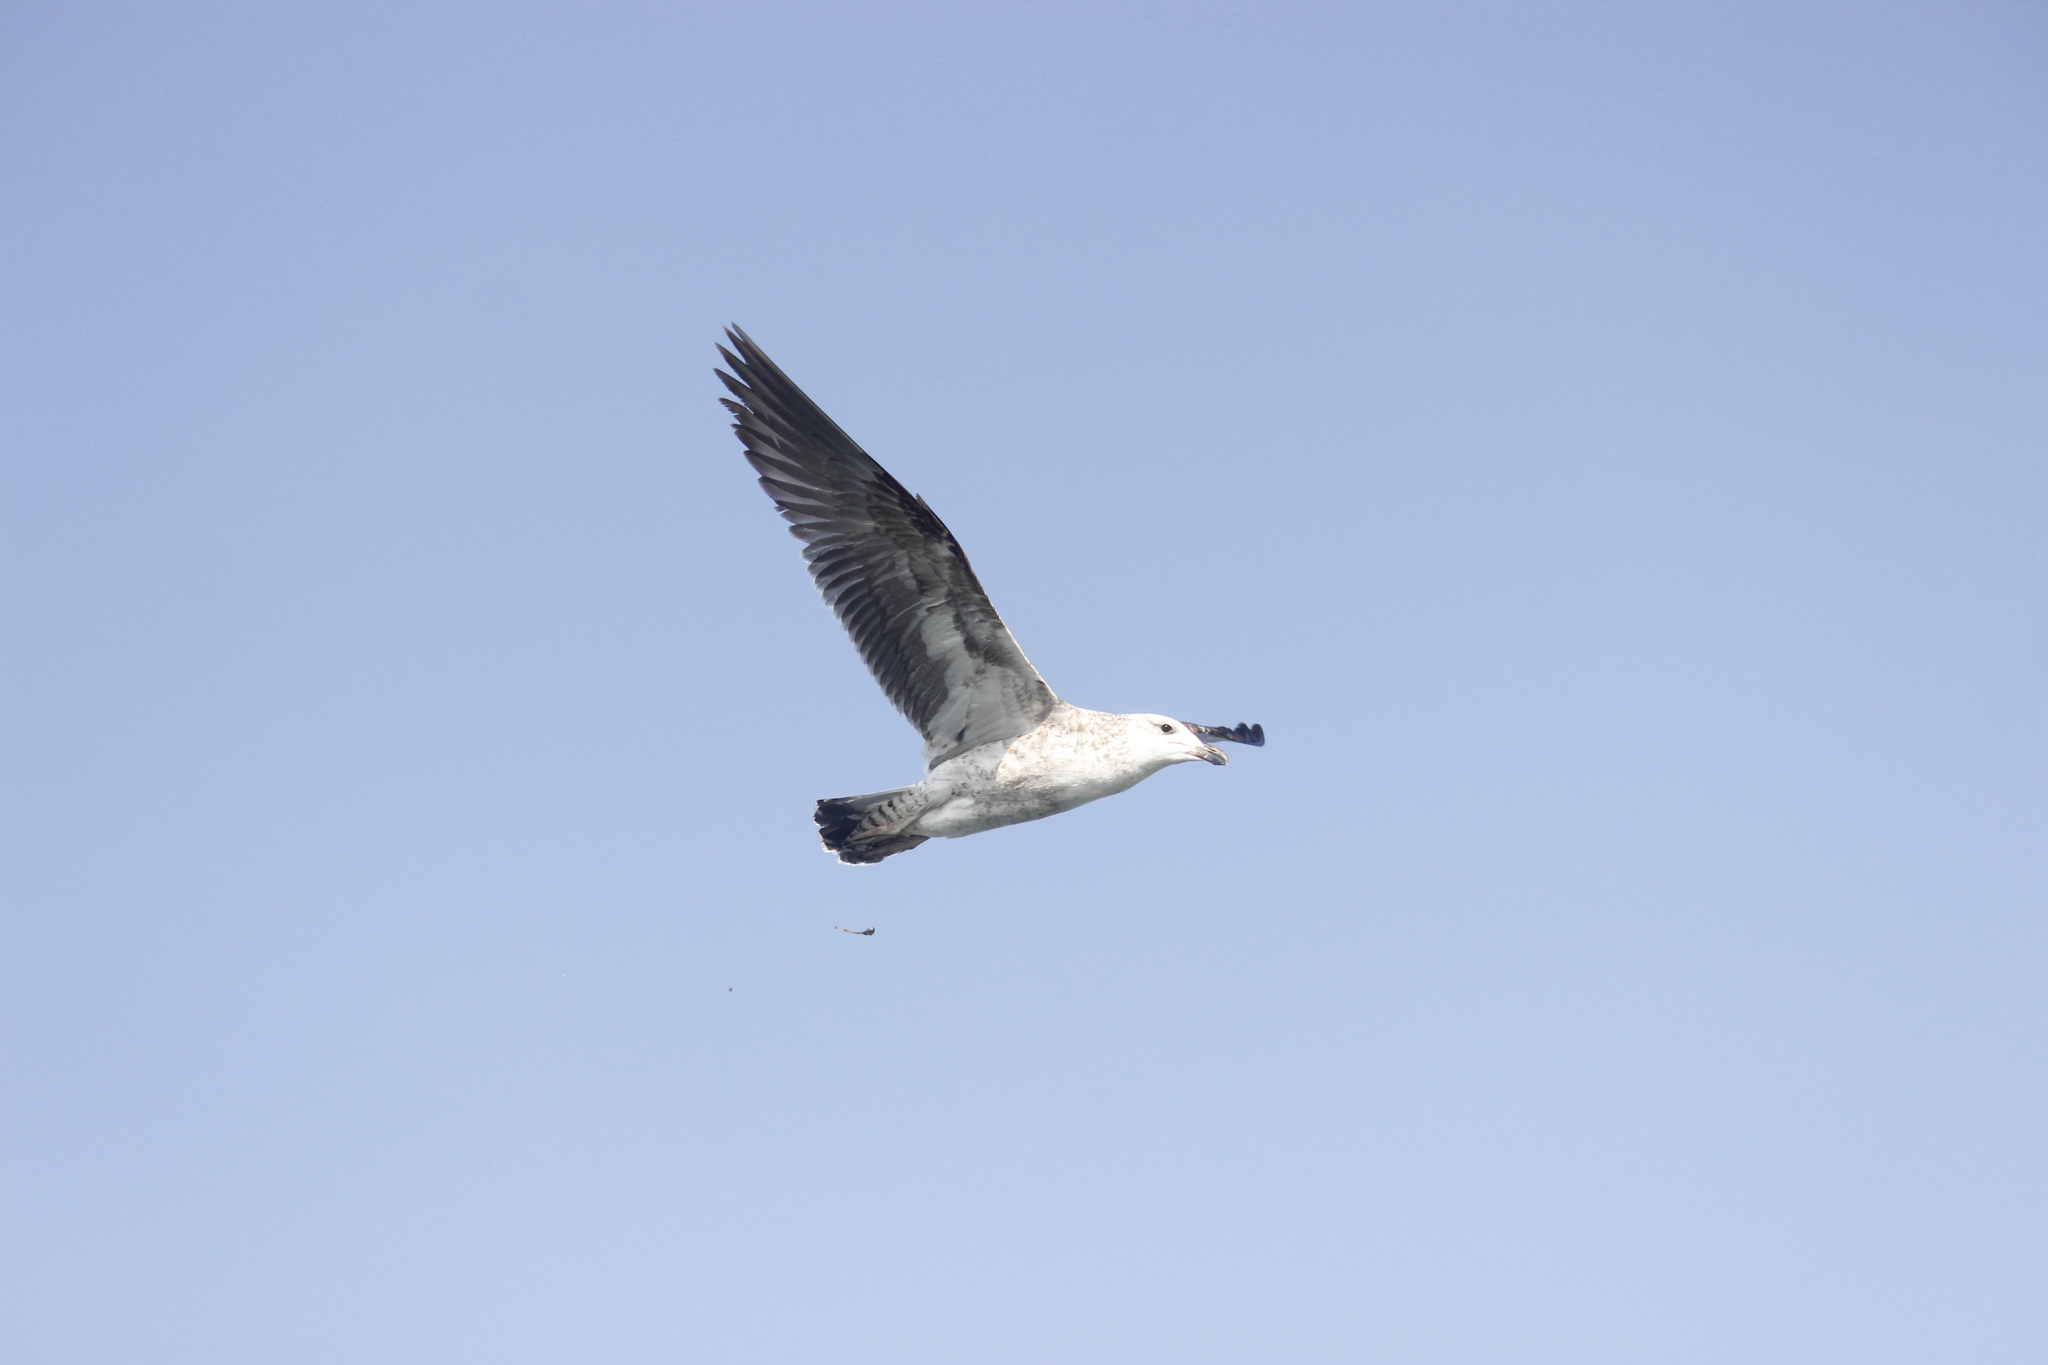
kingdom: Animalia
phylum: Chordata
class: Aves
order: Charadriiformes
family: Laridae
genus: Larus
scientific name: Larus dominicanus
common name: Kelp gull
